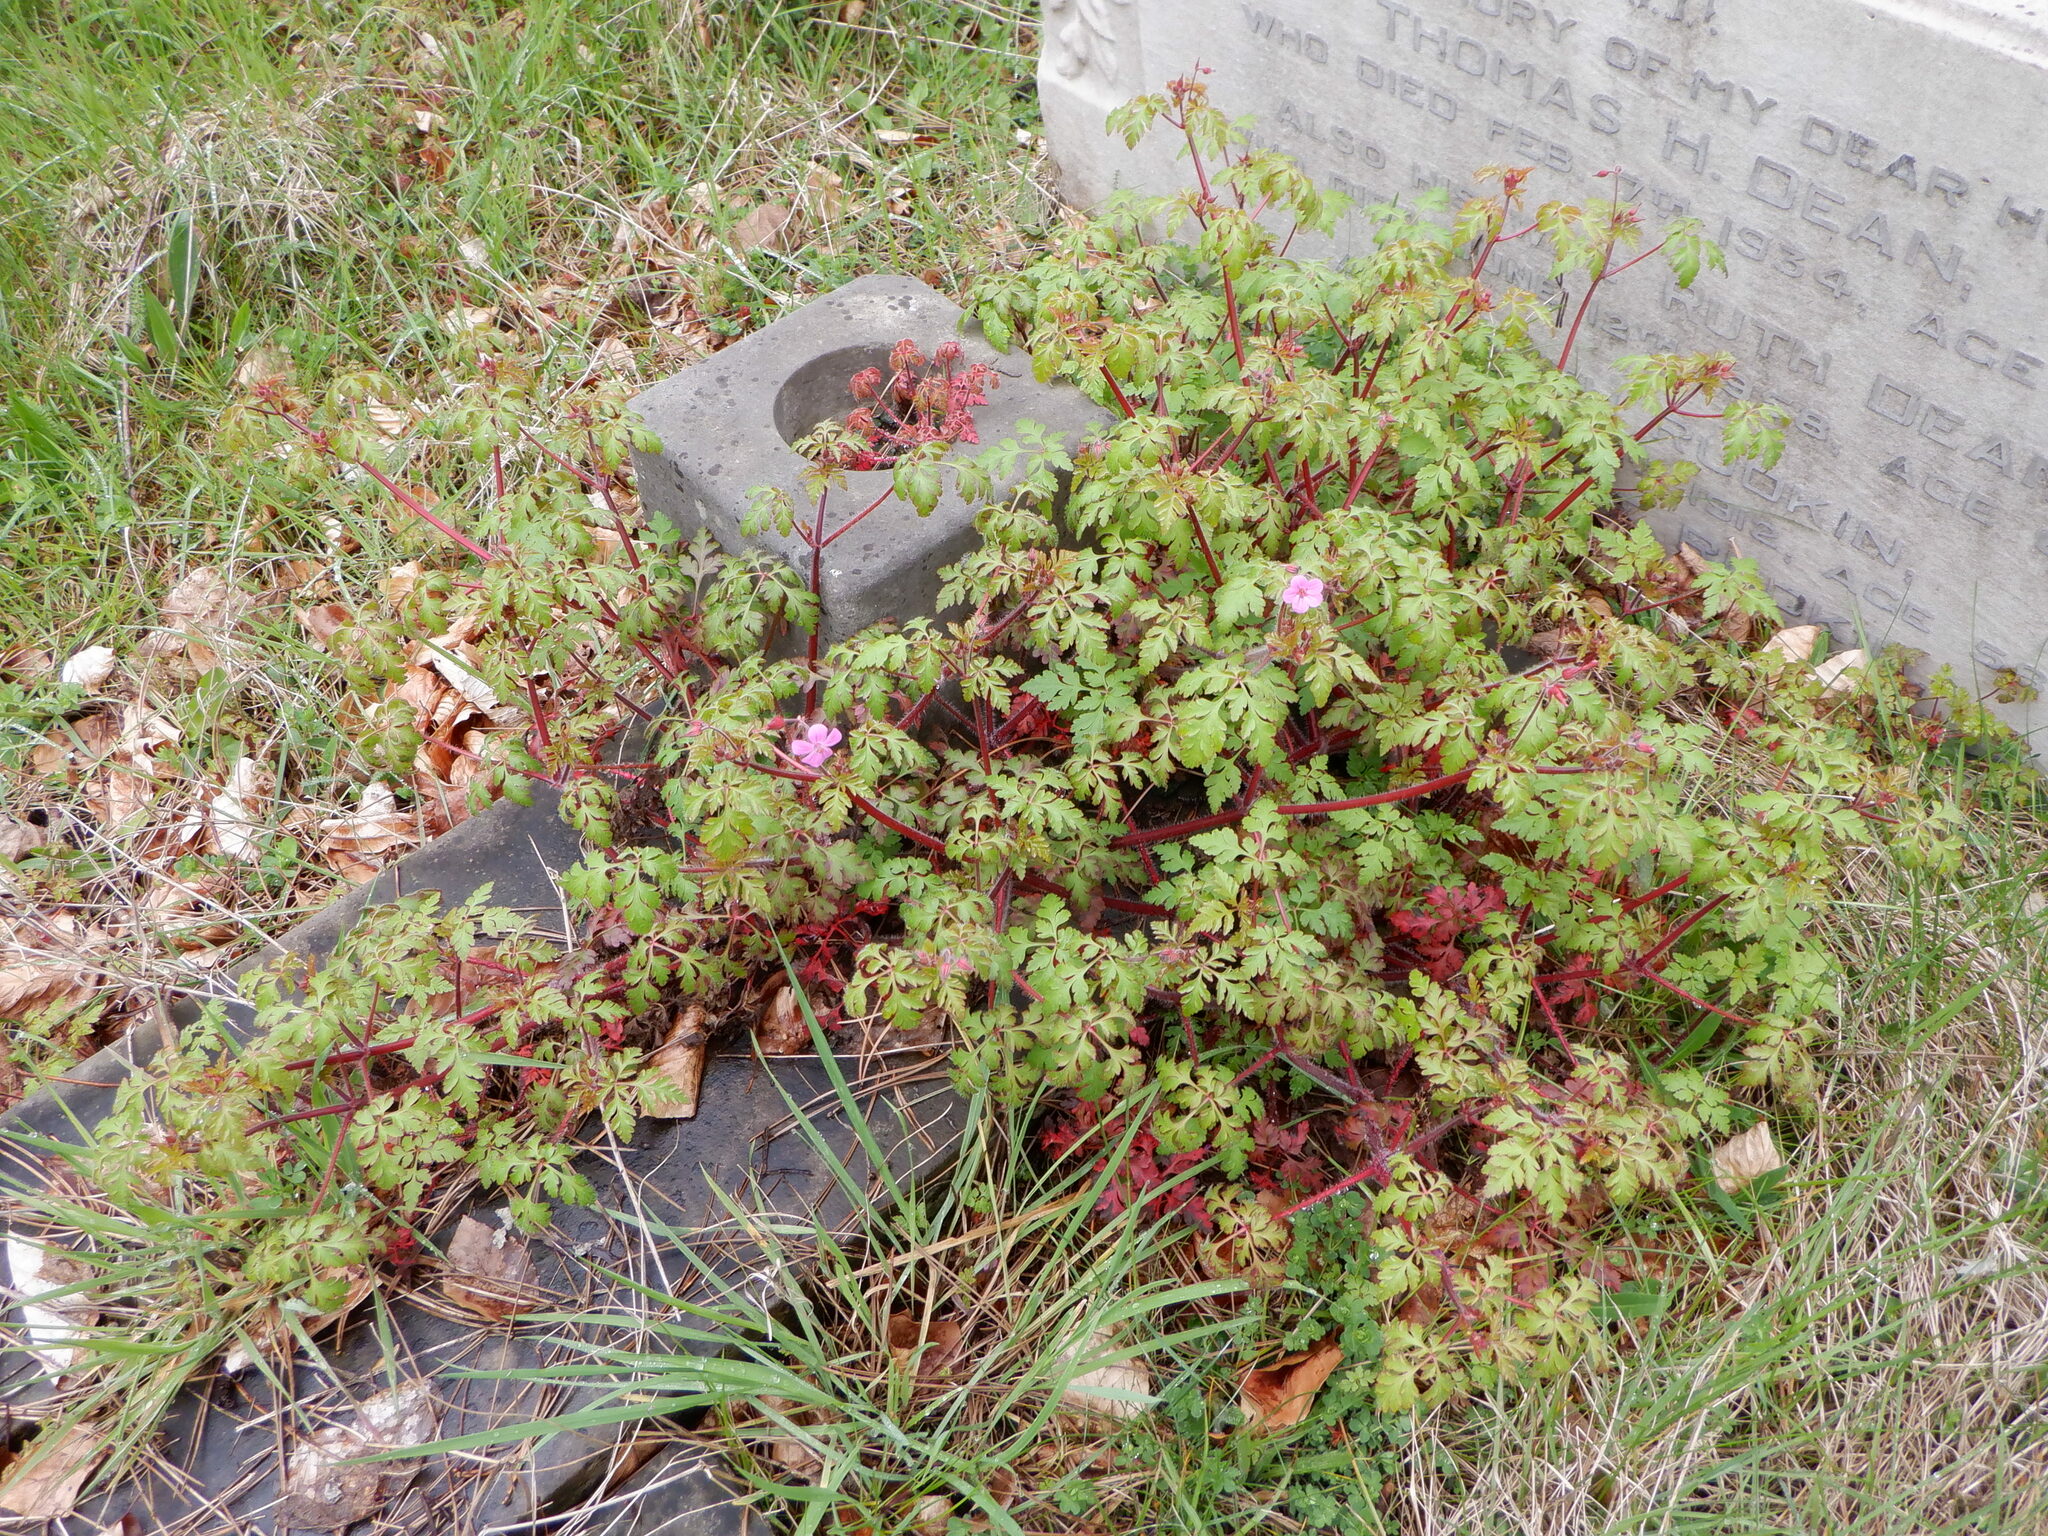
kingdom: Plantae
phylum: Tracheophyta
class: Magnoliopsida
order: Geraniales
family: Geraniaceae
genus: Geranium
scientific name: Geranium robertianum
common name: Herb-robert
